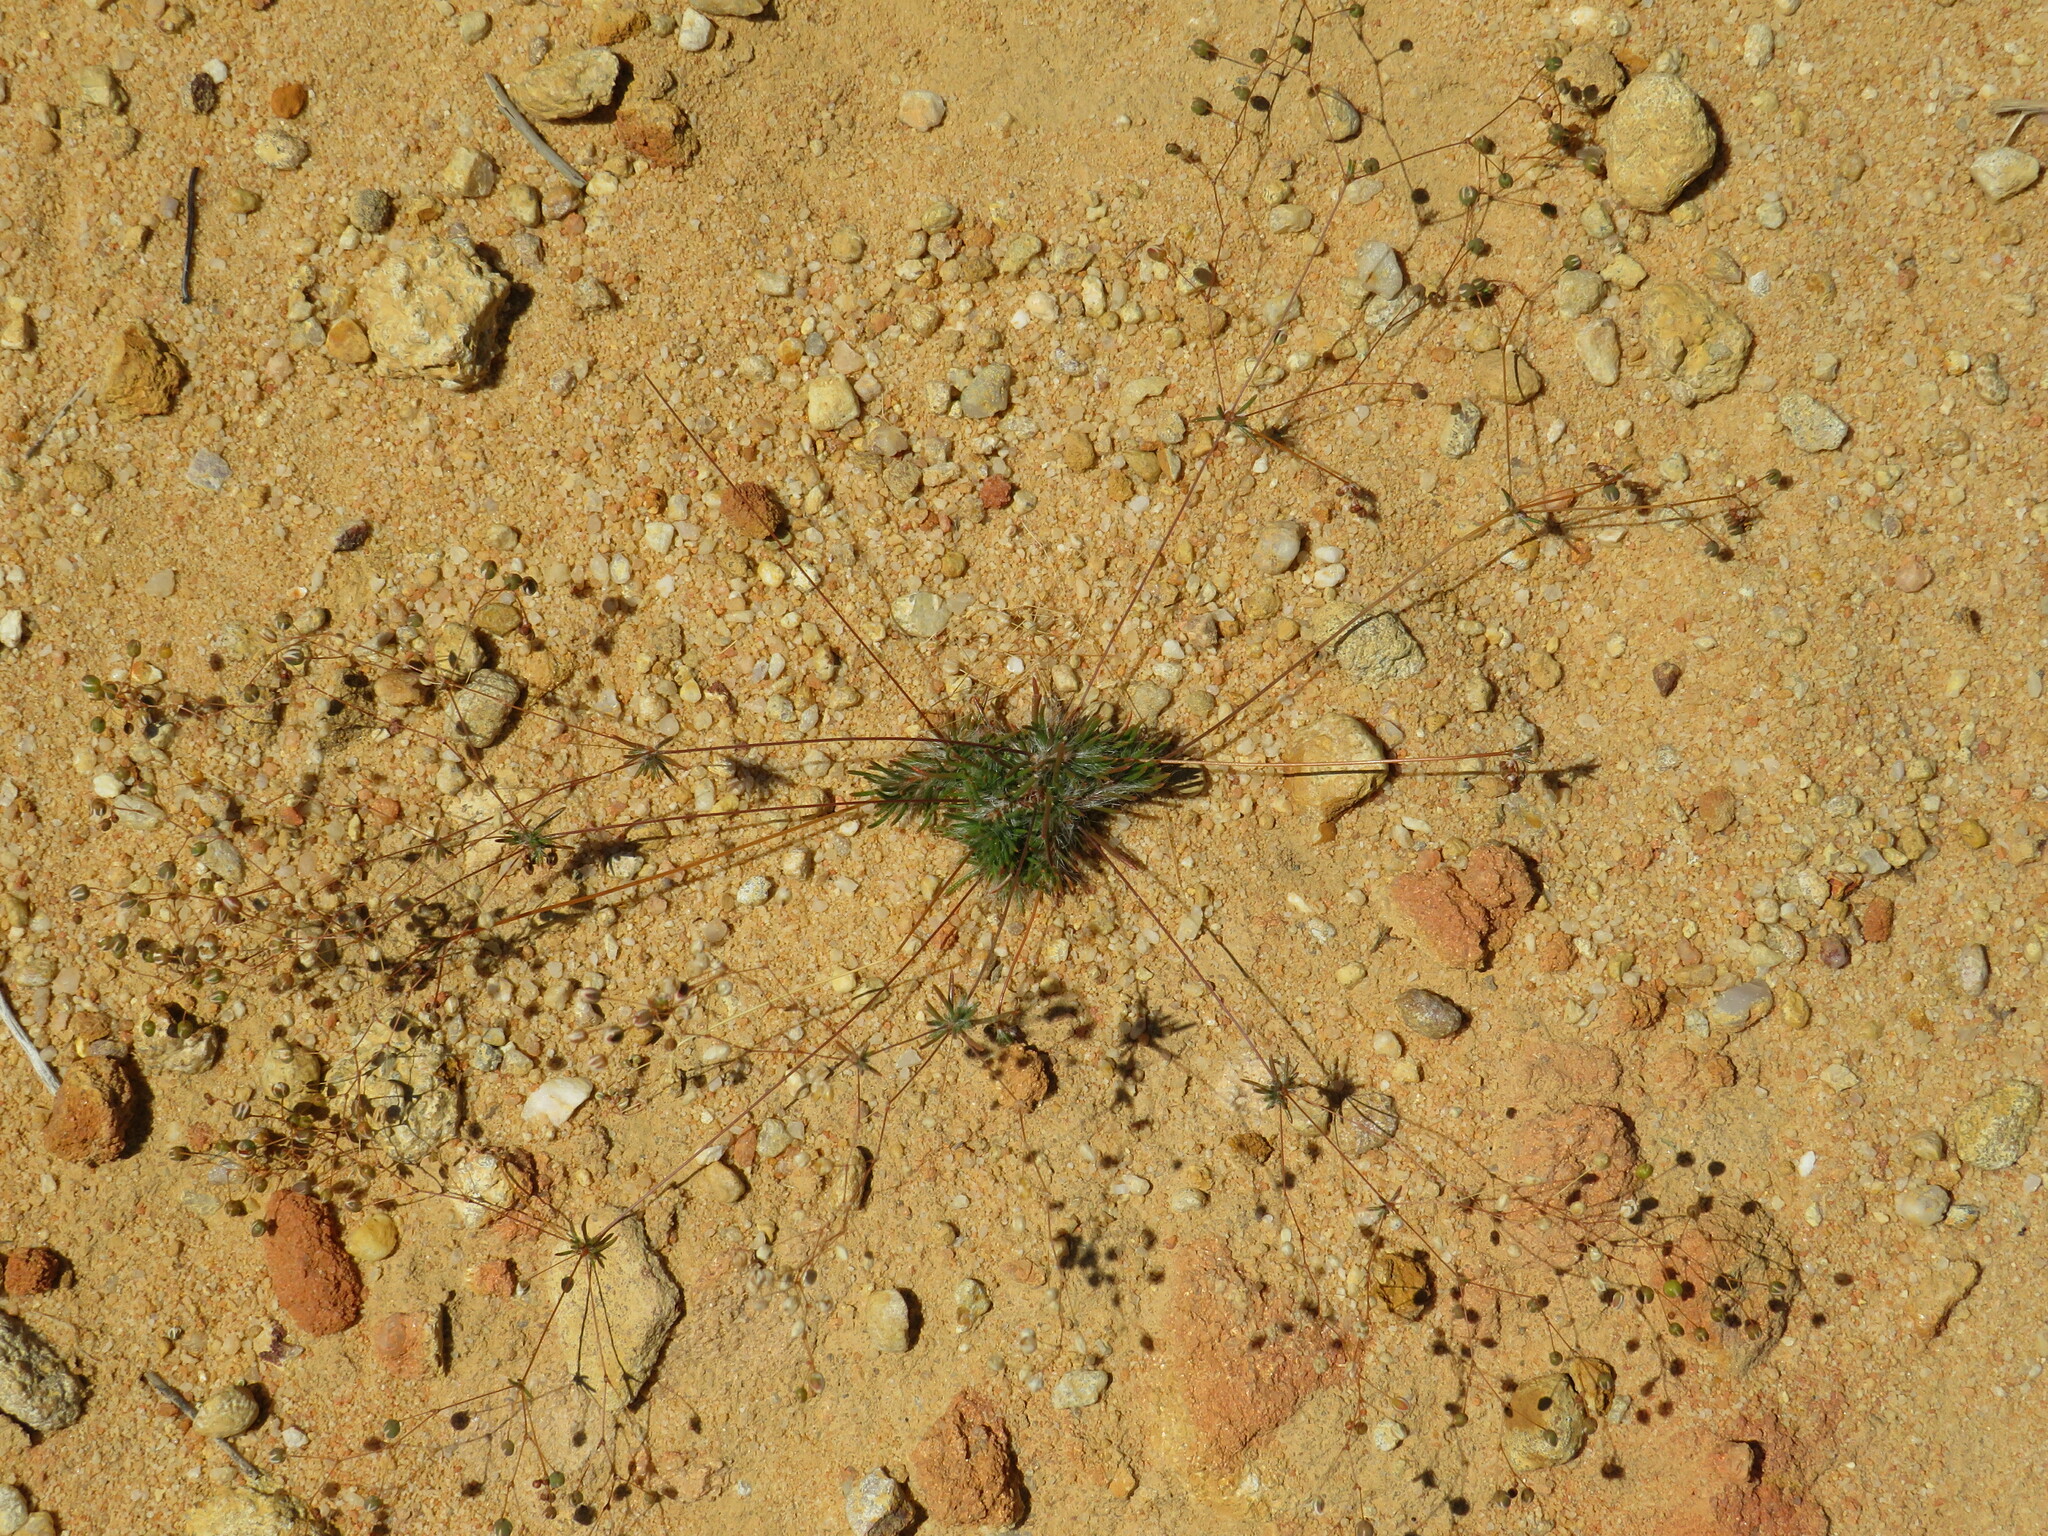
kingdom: Plantae
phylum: Tracheophyta
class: Magnoliopsida
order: Caryophyllales
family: Molluginaceae
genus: Pharnaceum
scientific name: Pharnaceum dichotomum
